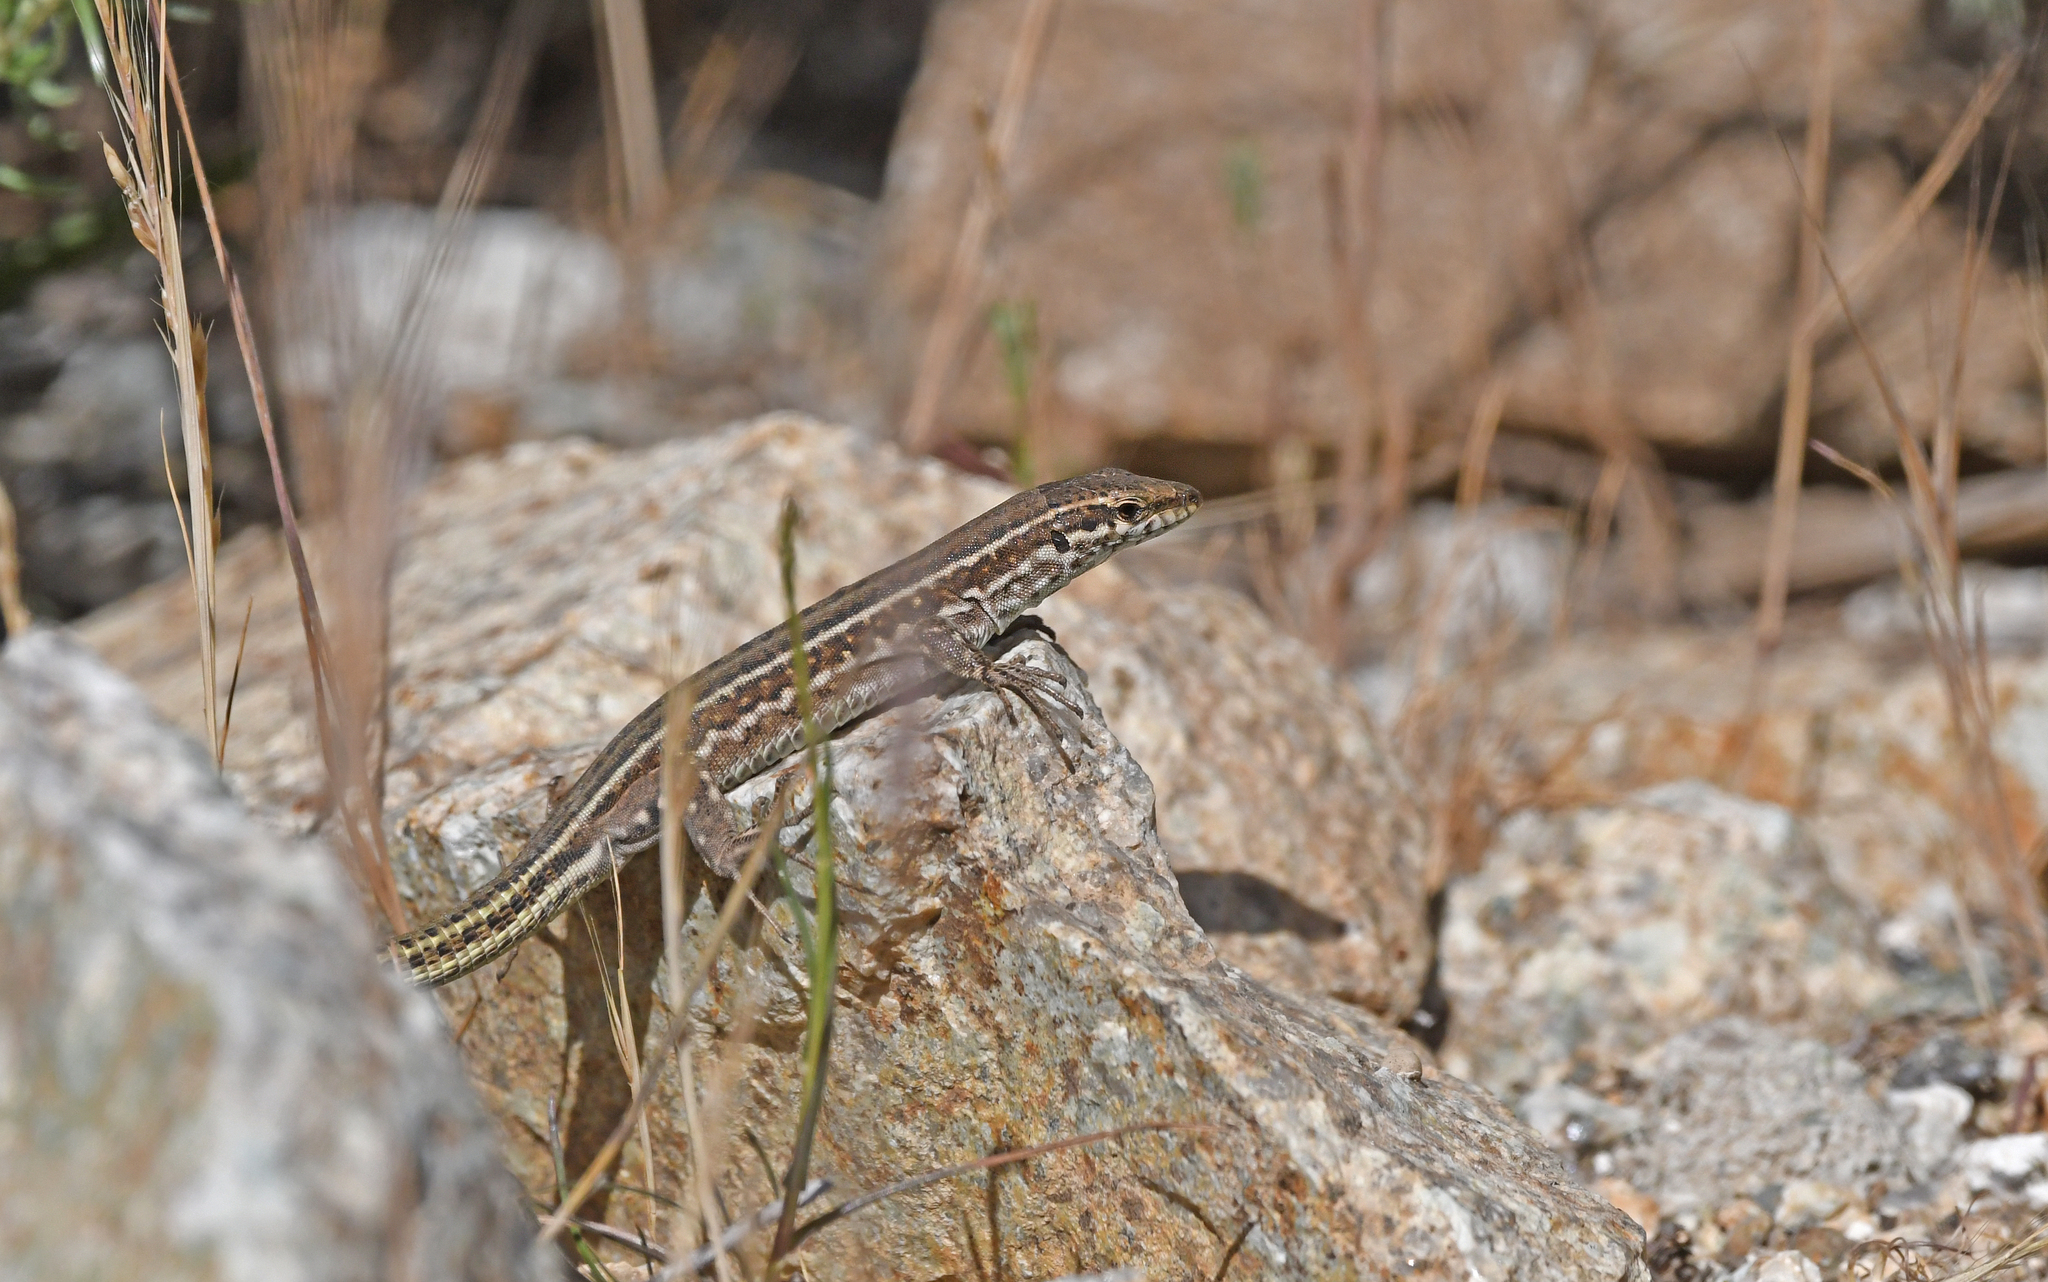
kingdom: Animalia
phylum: Chordata
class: Squamata
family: Lacertidae
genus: Podarcis
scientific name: Podarcis tiliguerta
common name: Tyrrhenian wall lizard
